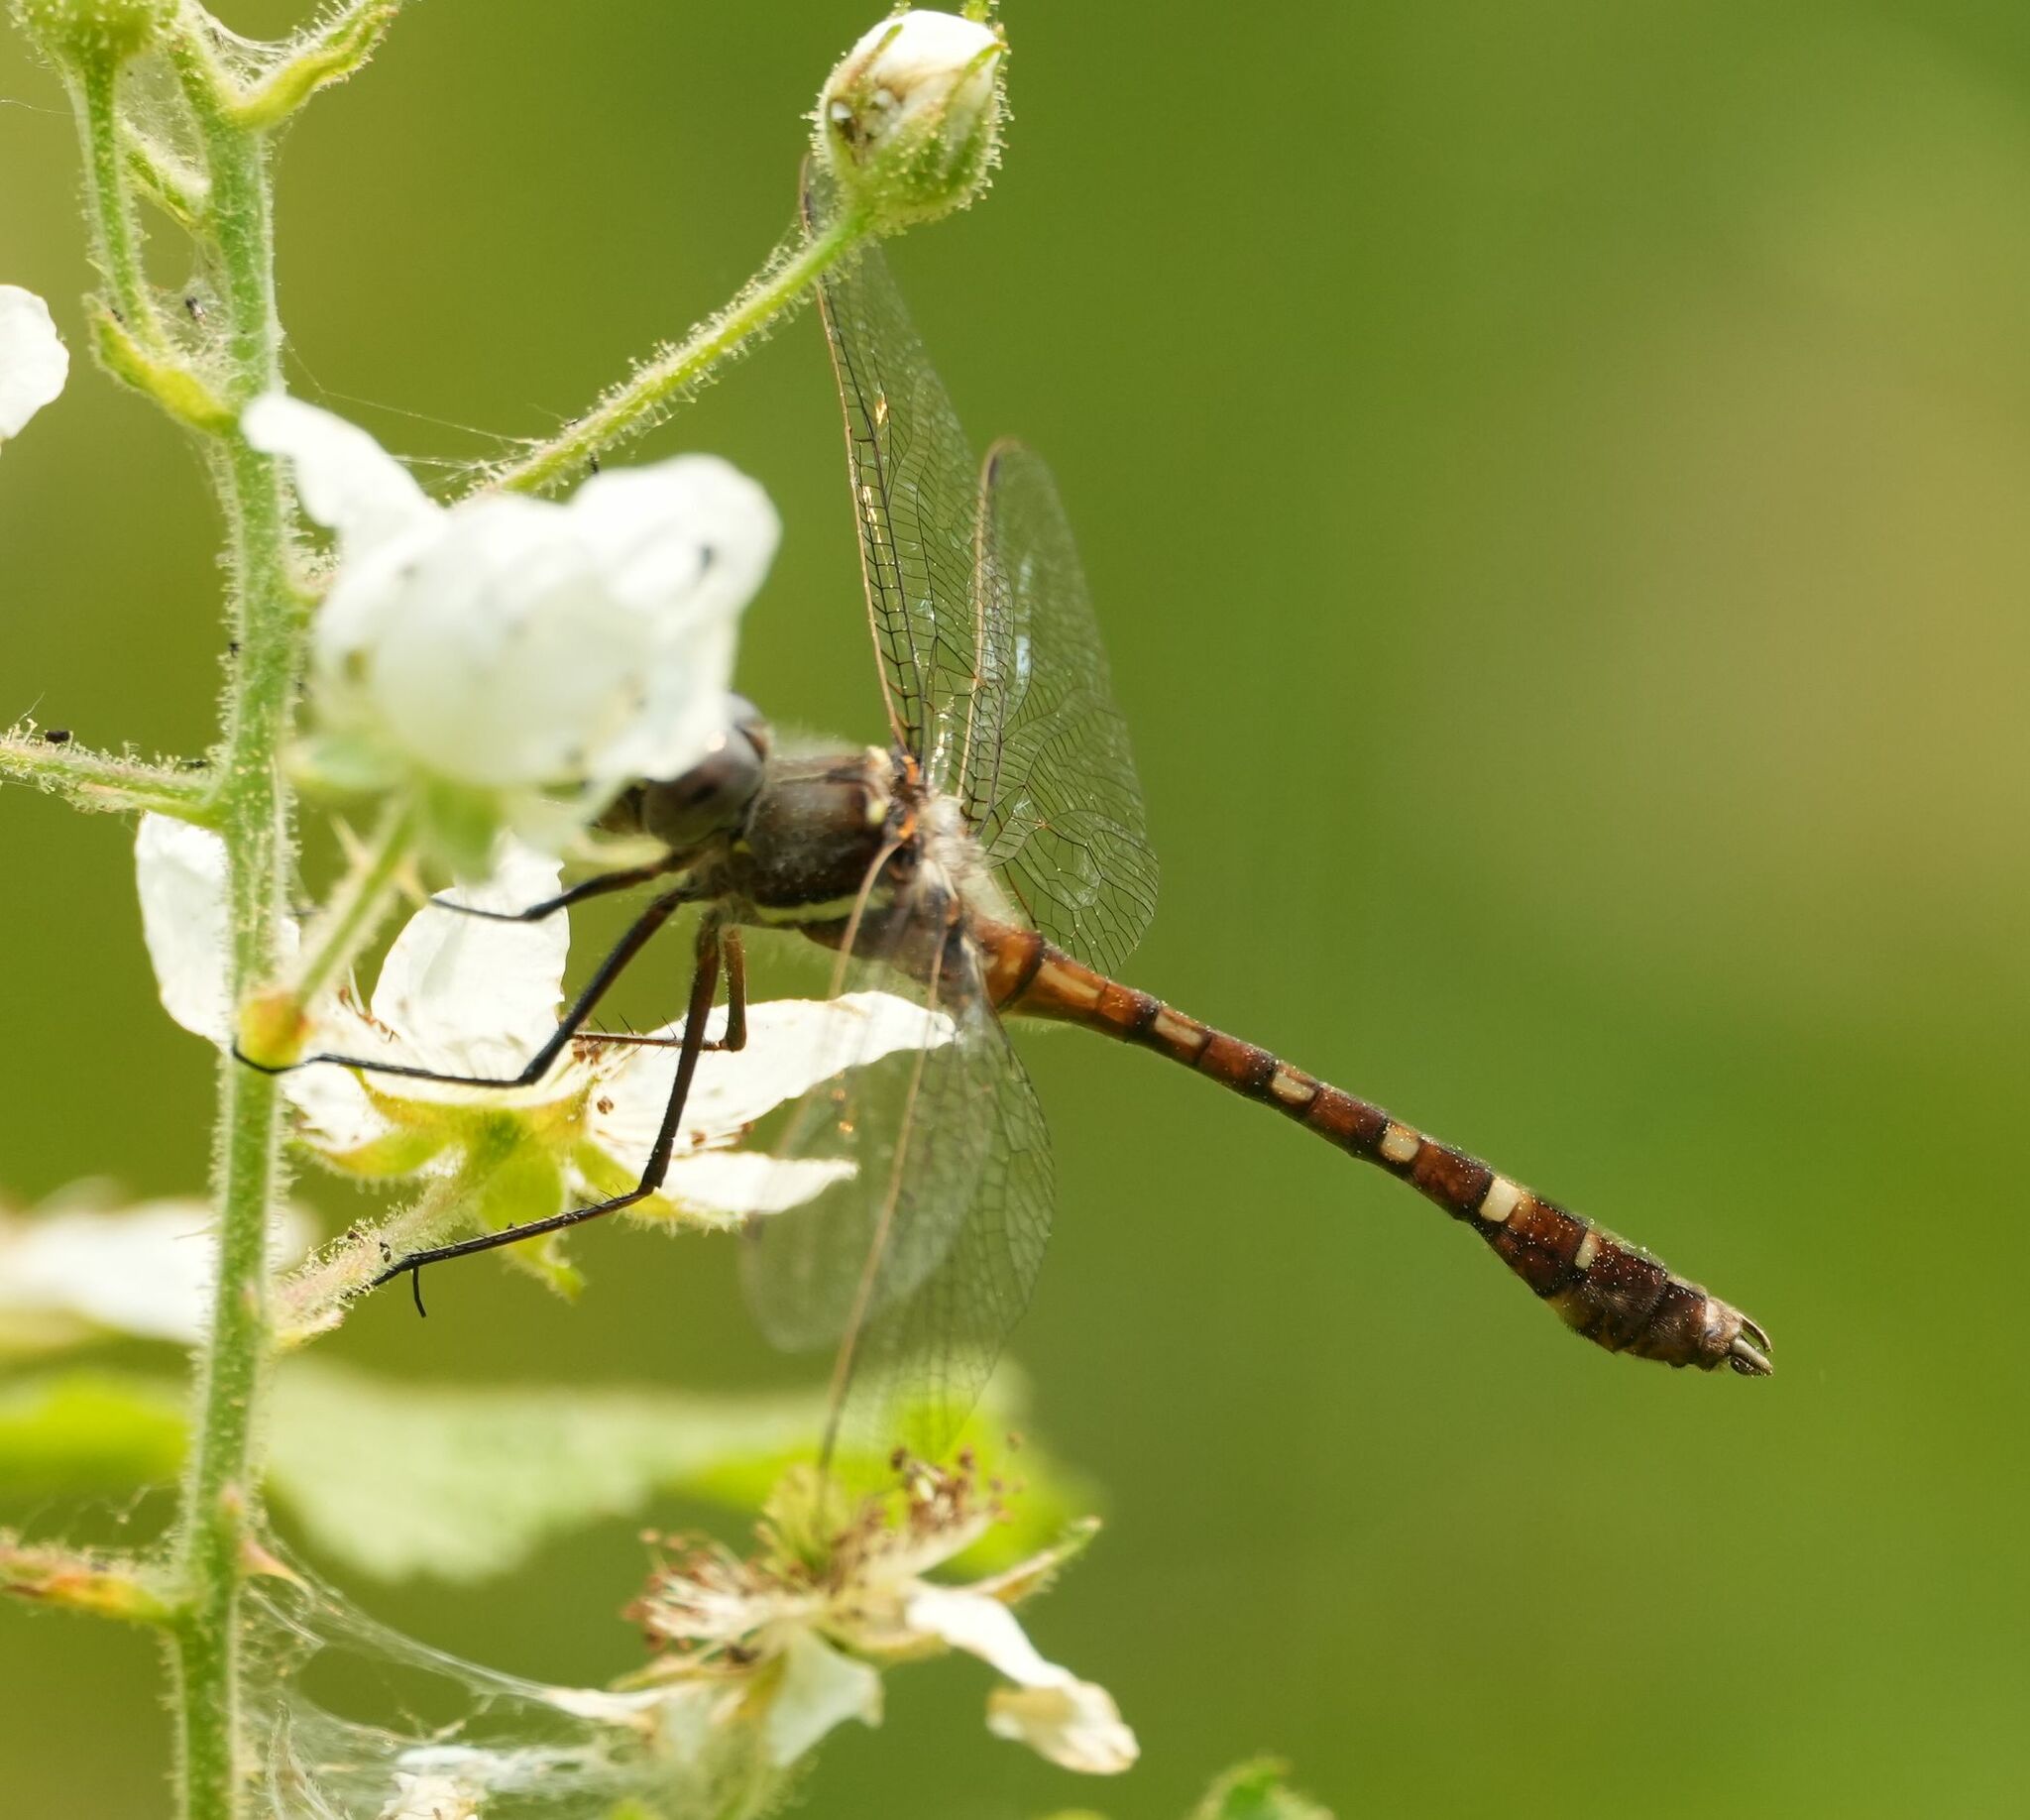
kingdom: Animalia
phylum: Arthropoda
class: Insecta
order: Odonata
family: Macromiidae
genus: Didymops
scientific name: Didymops transversa
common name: Stream cruiser
